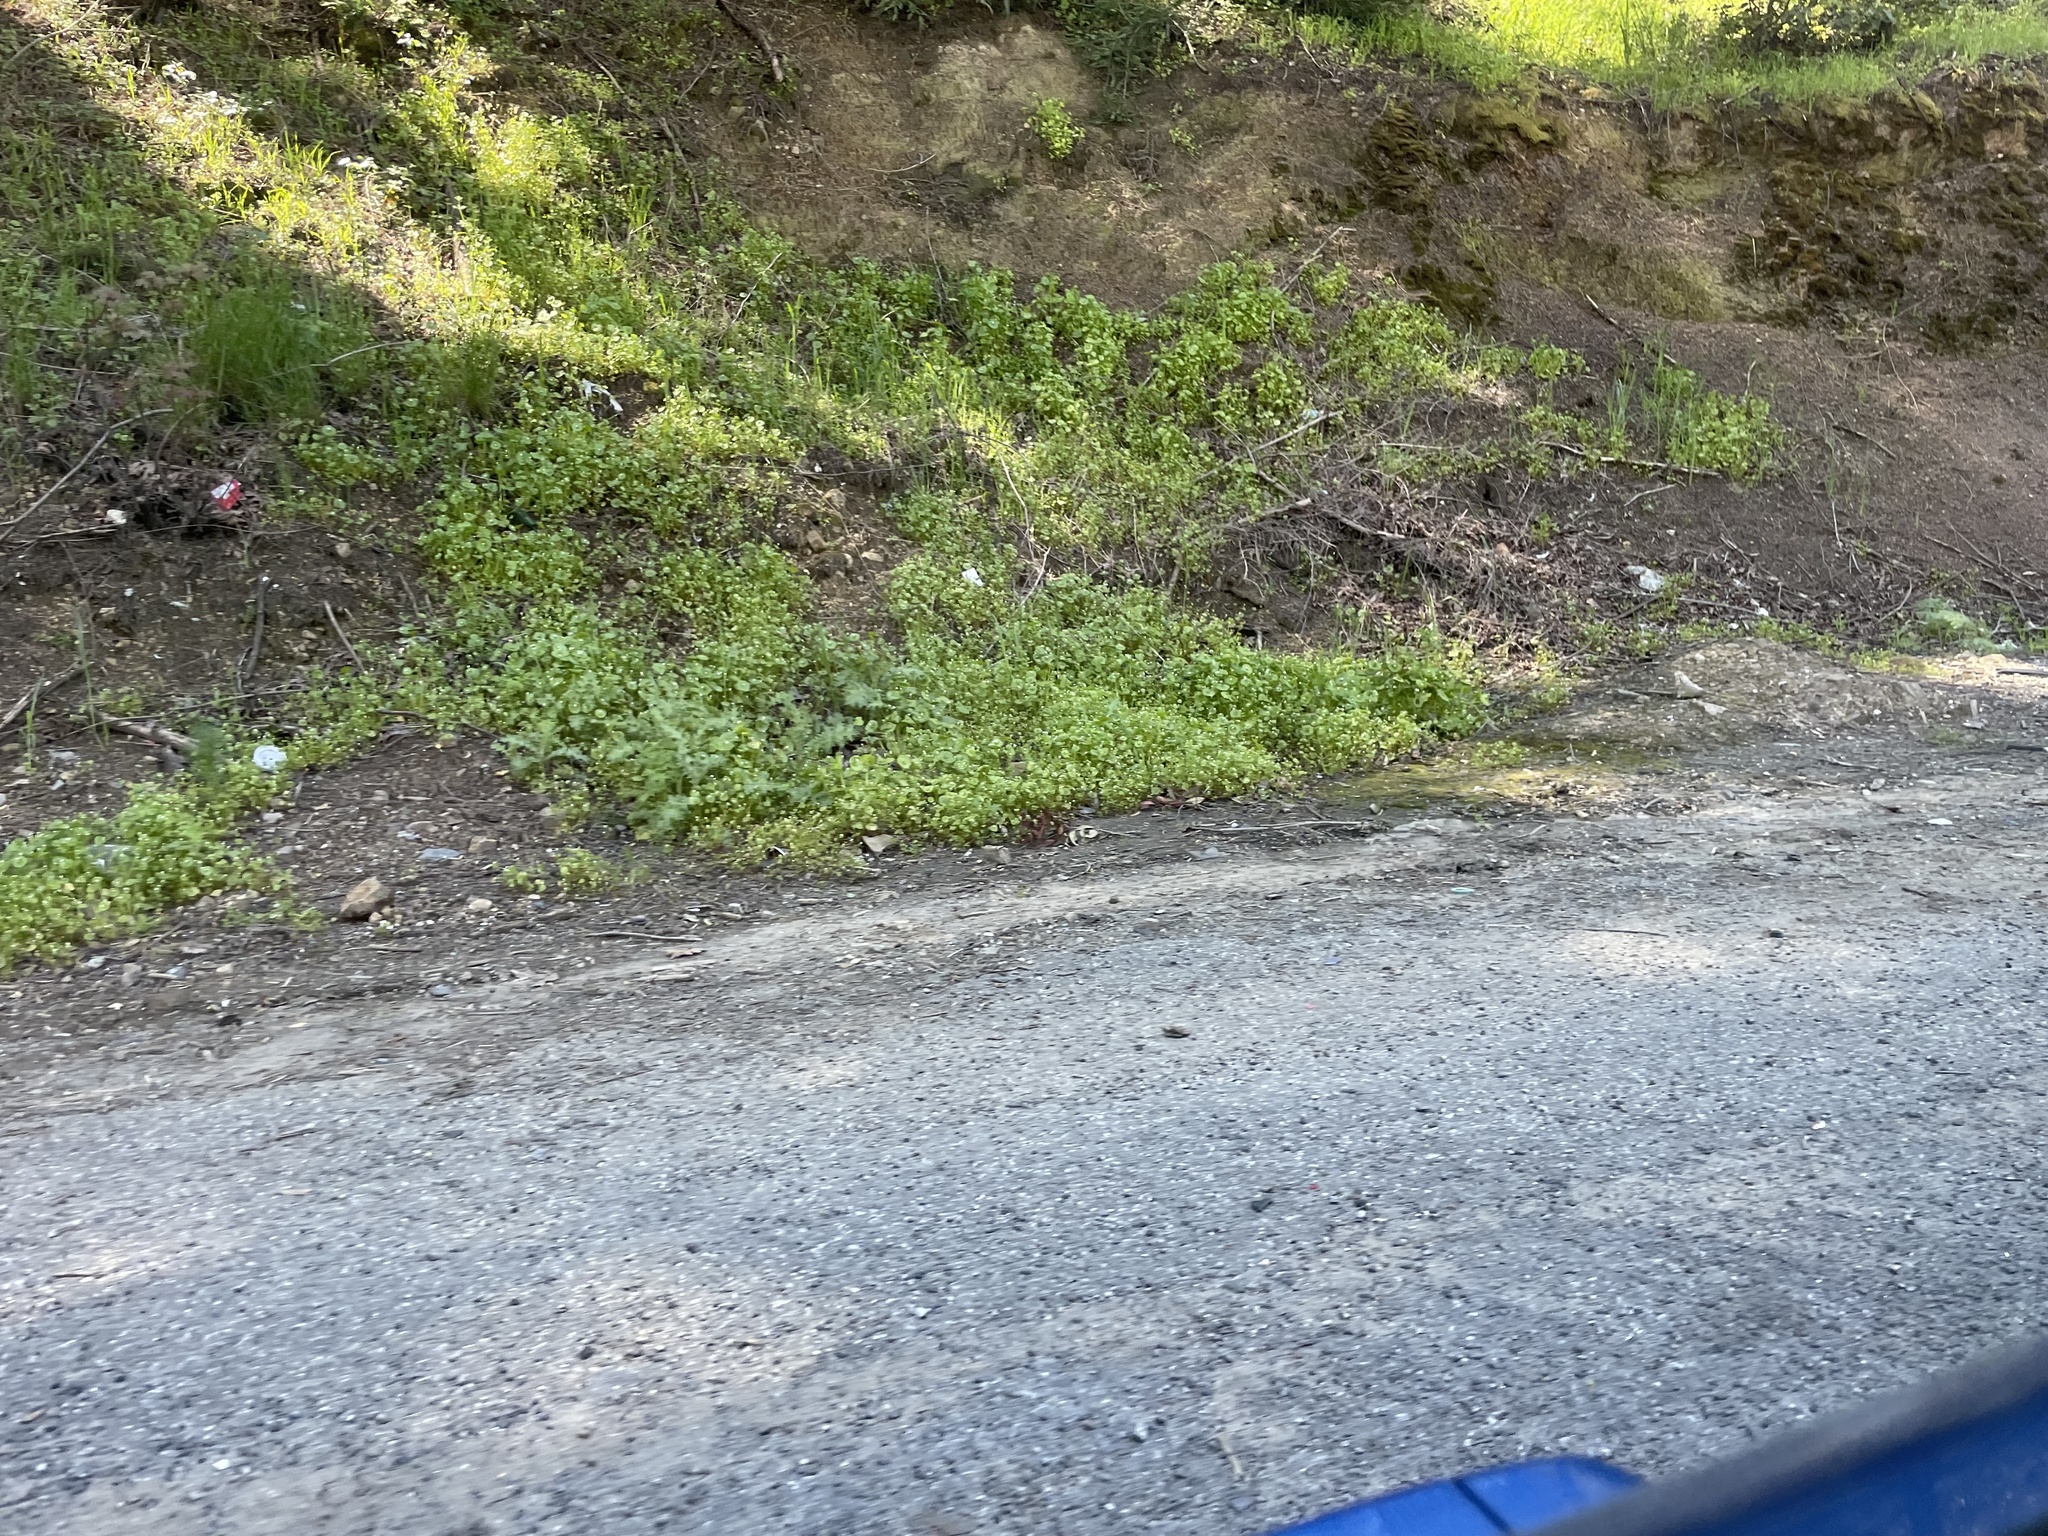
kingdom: Plantae
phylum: Tracheophyta
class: Magnoliopsida
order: Caryophyllales
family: Montiaceae
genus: Claytonia
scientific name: Claytonia perfoliata
